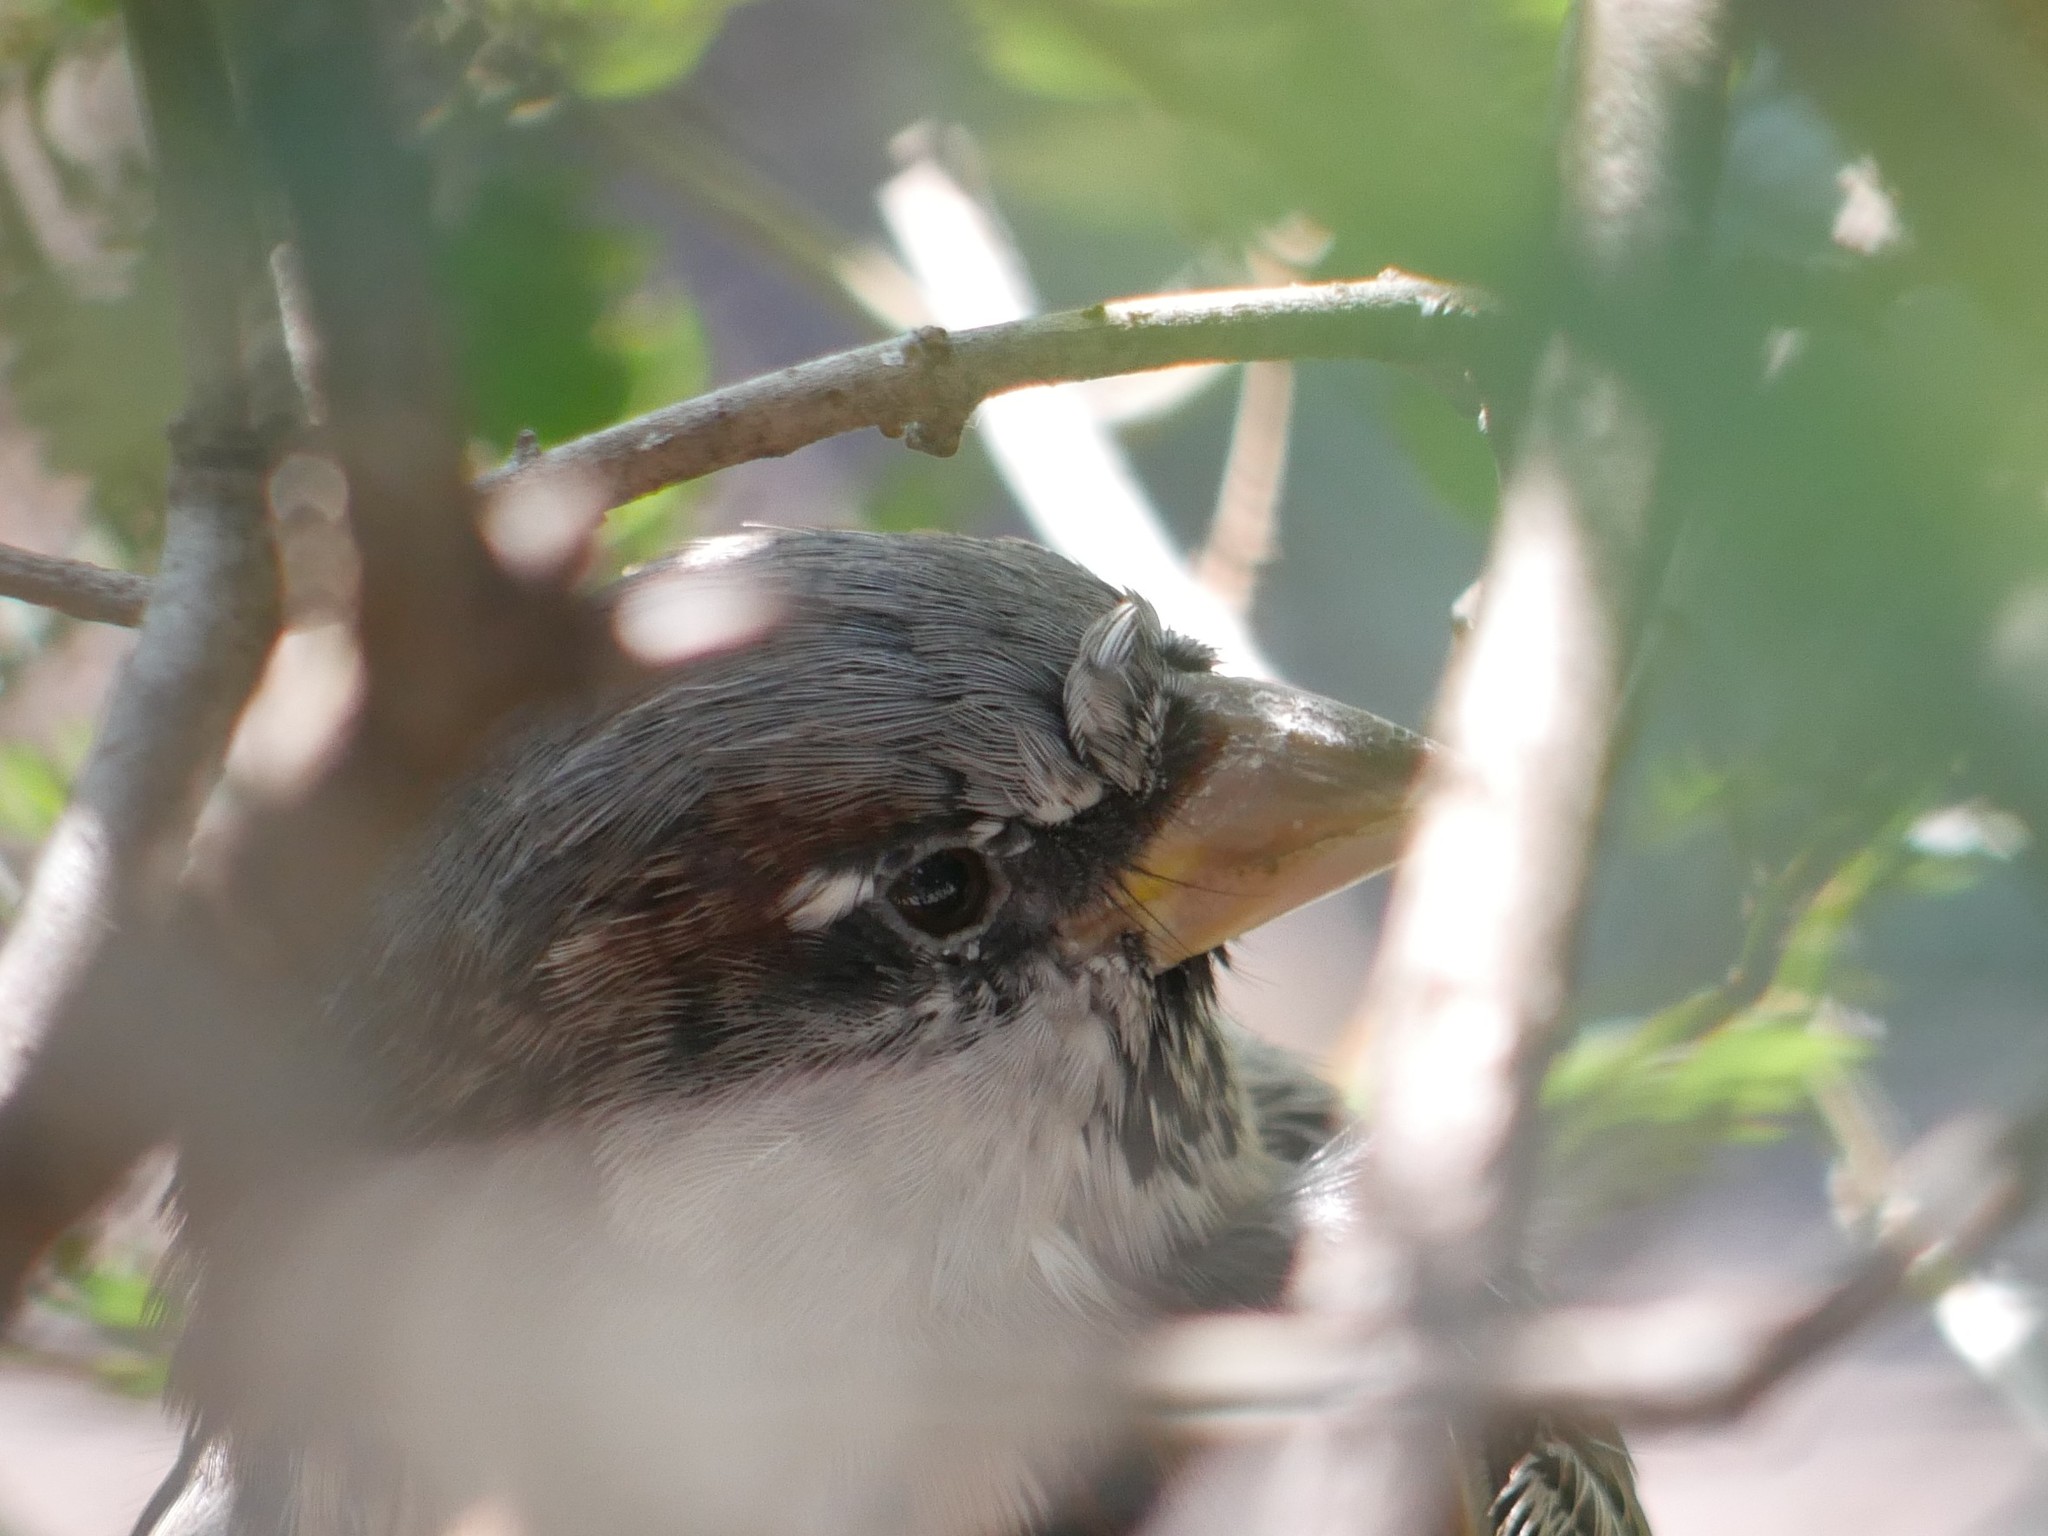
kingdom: Animalia
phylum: Chordata
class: Aves
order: Passeriformes
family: Passeridae
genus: Passer
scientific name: Passer domesticus
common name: House sparrow
